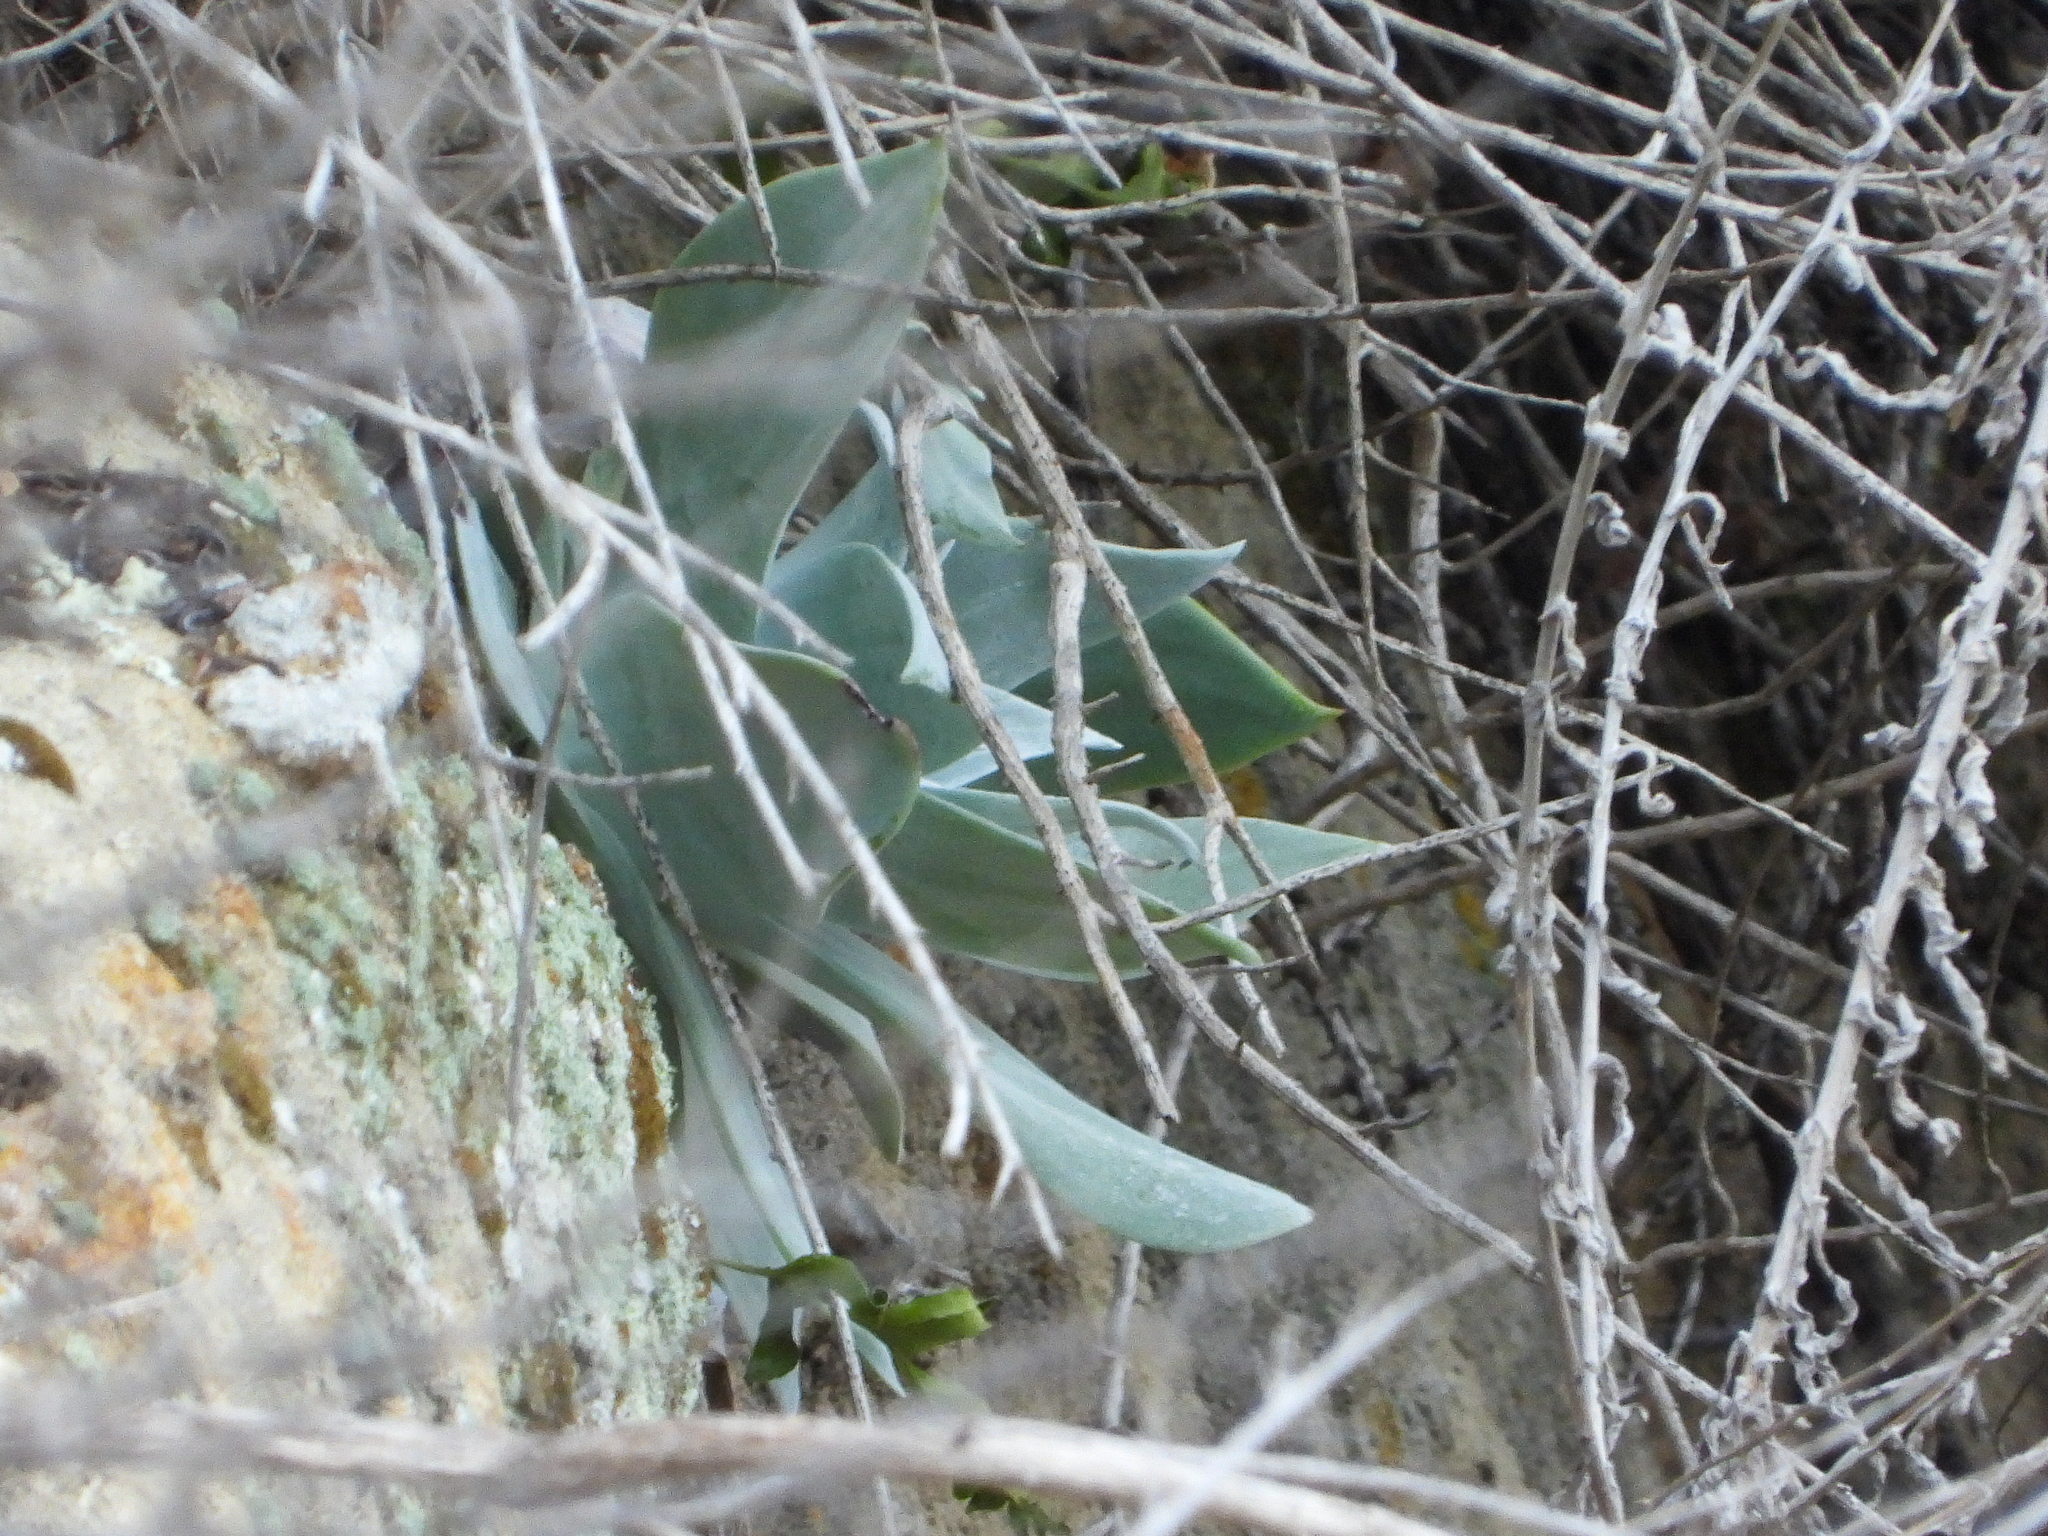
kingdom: Plantae
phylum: Tracheophyta
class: Magnoliopsida
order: Saxifragales
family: Crassulaceae
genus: Dudleya
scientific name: Dudleya pulverulenta
